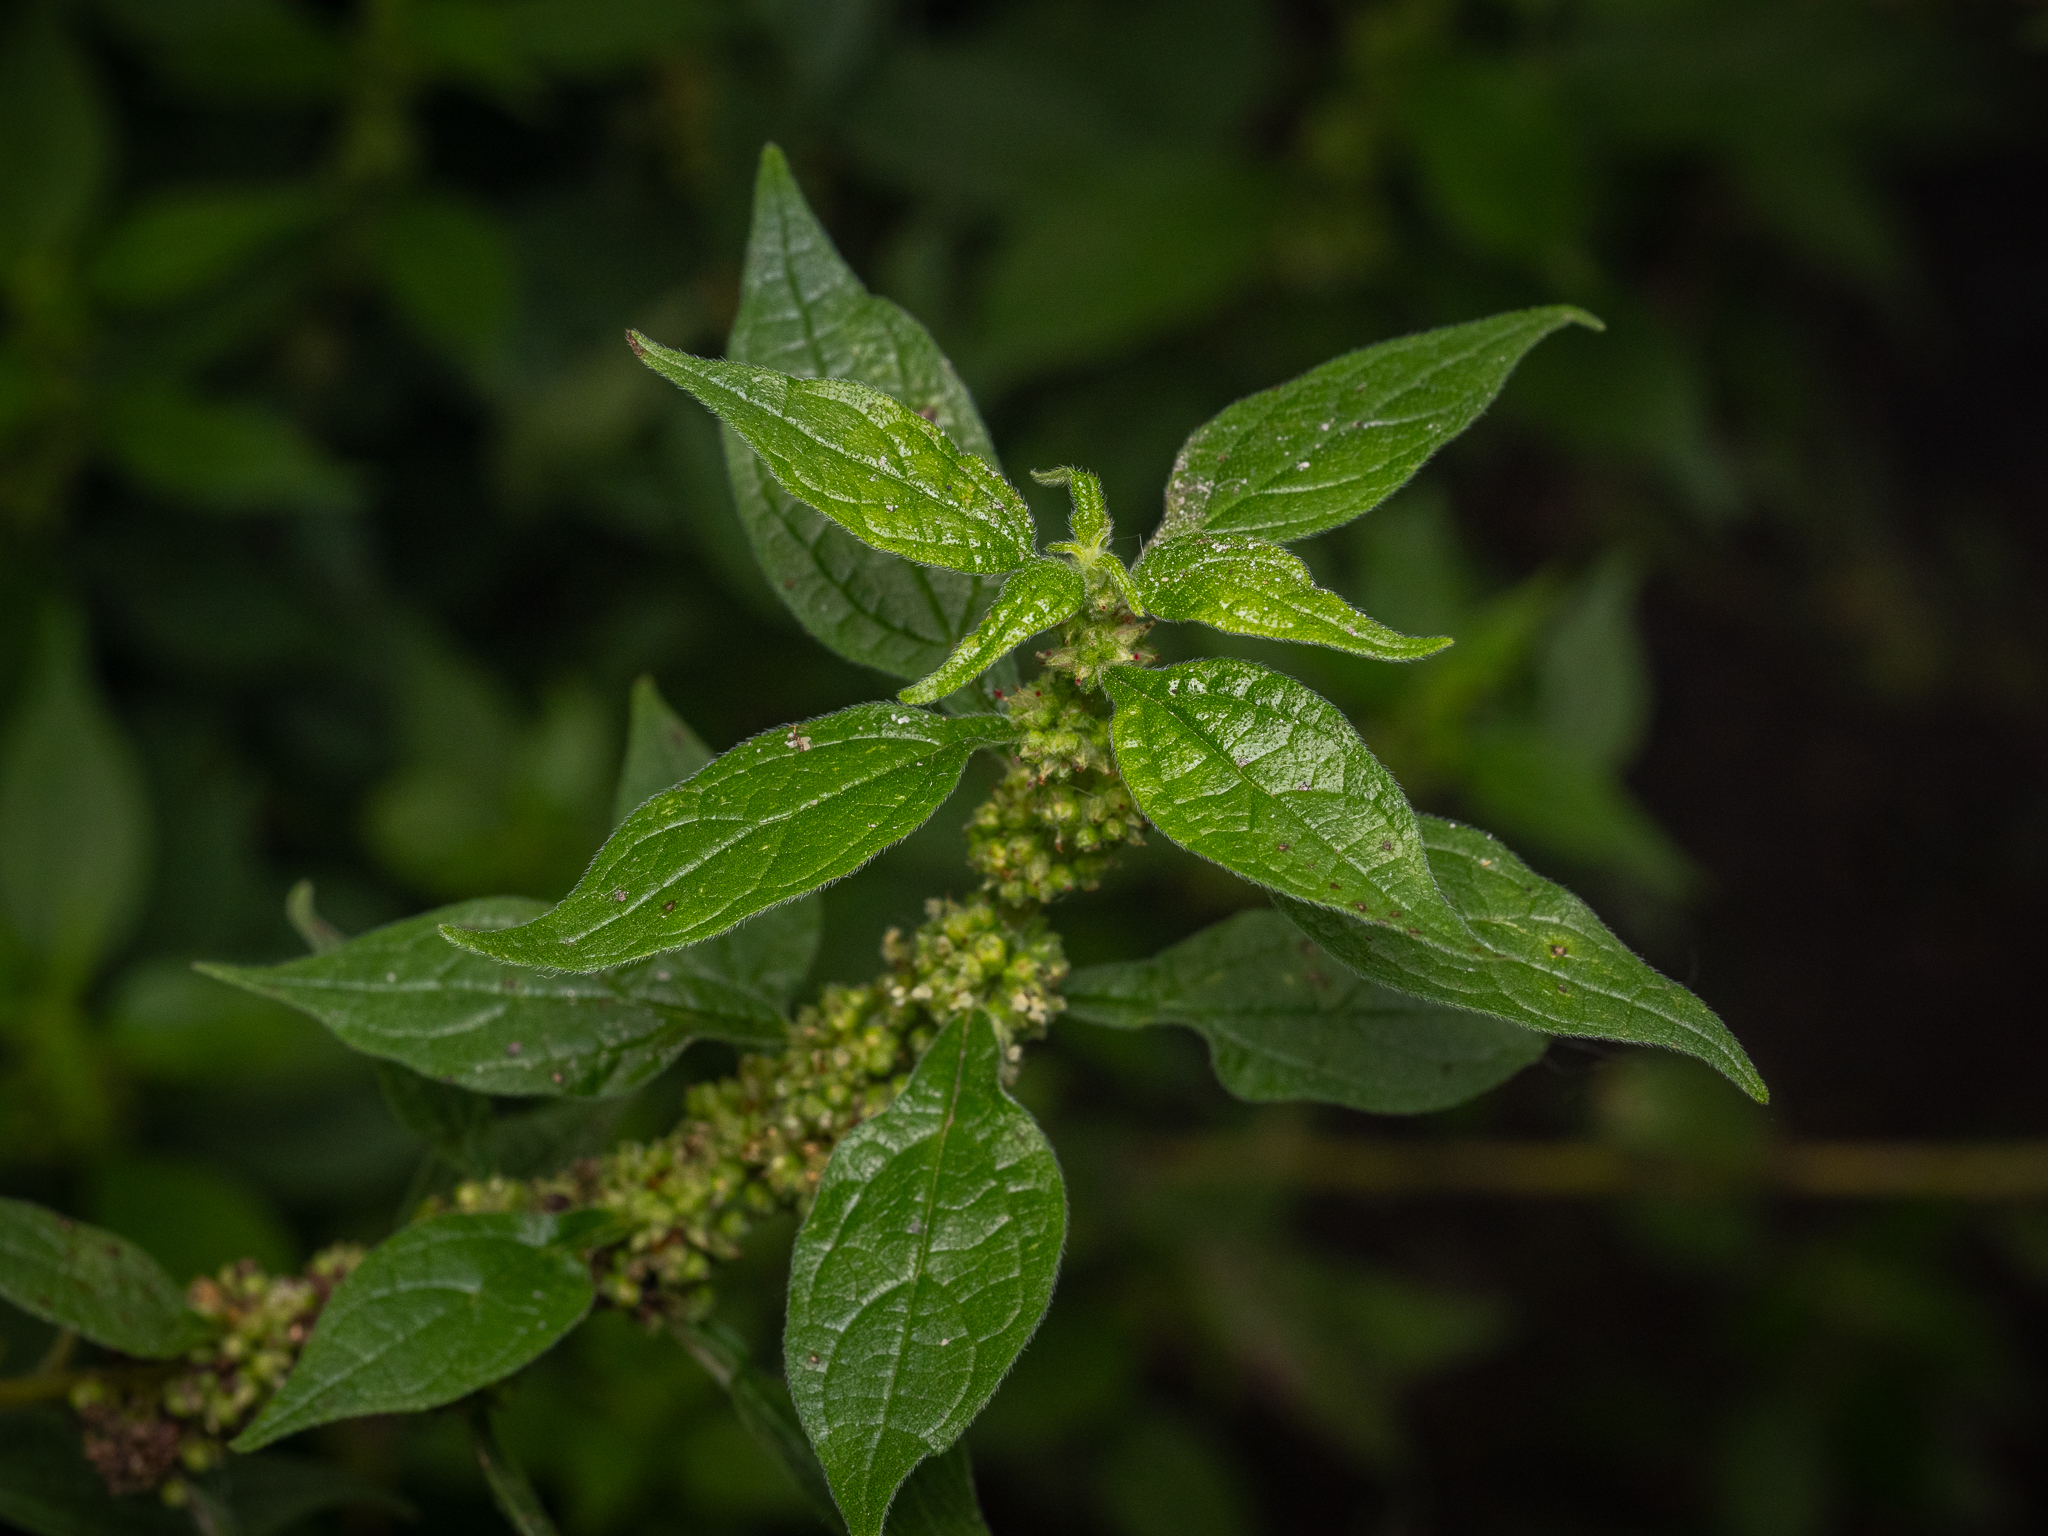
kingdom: Plantae
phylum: Tracheophyta
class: Magnoliopsida
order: Rosales
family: Urticaceae
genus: Parietaria
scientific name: Parietaria officinalis
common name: Eastern pellitory-of-the-wall
